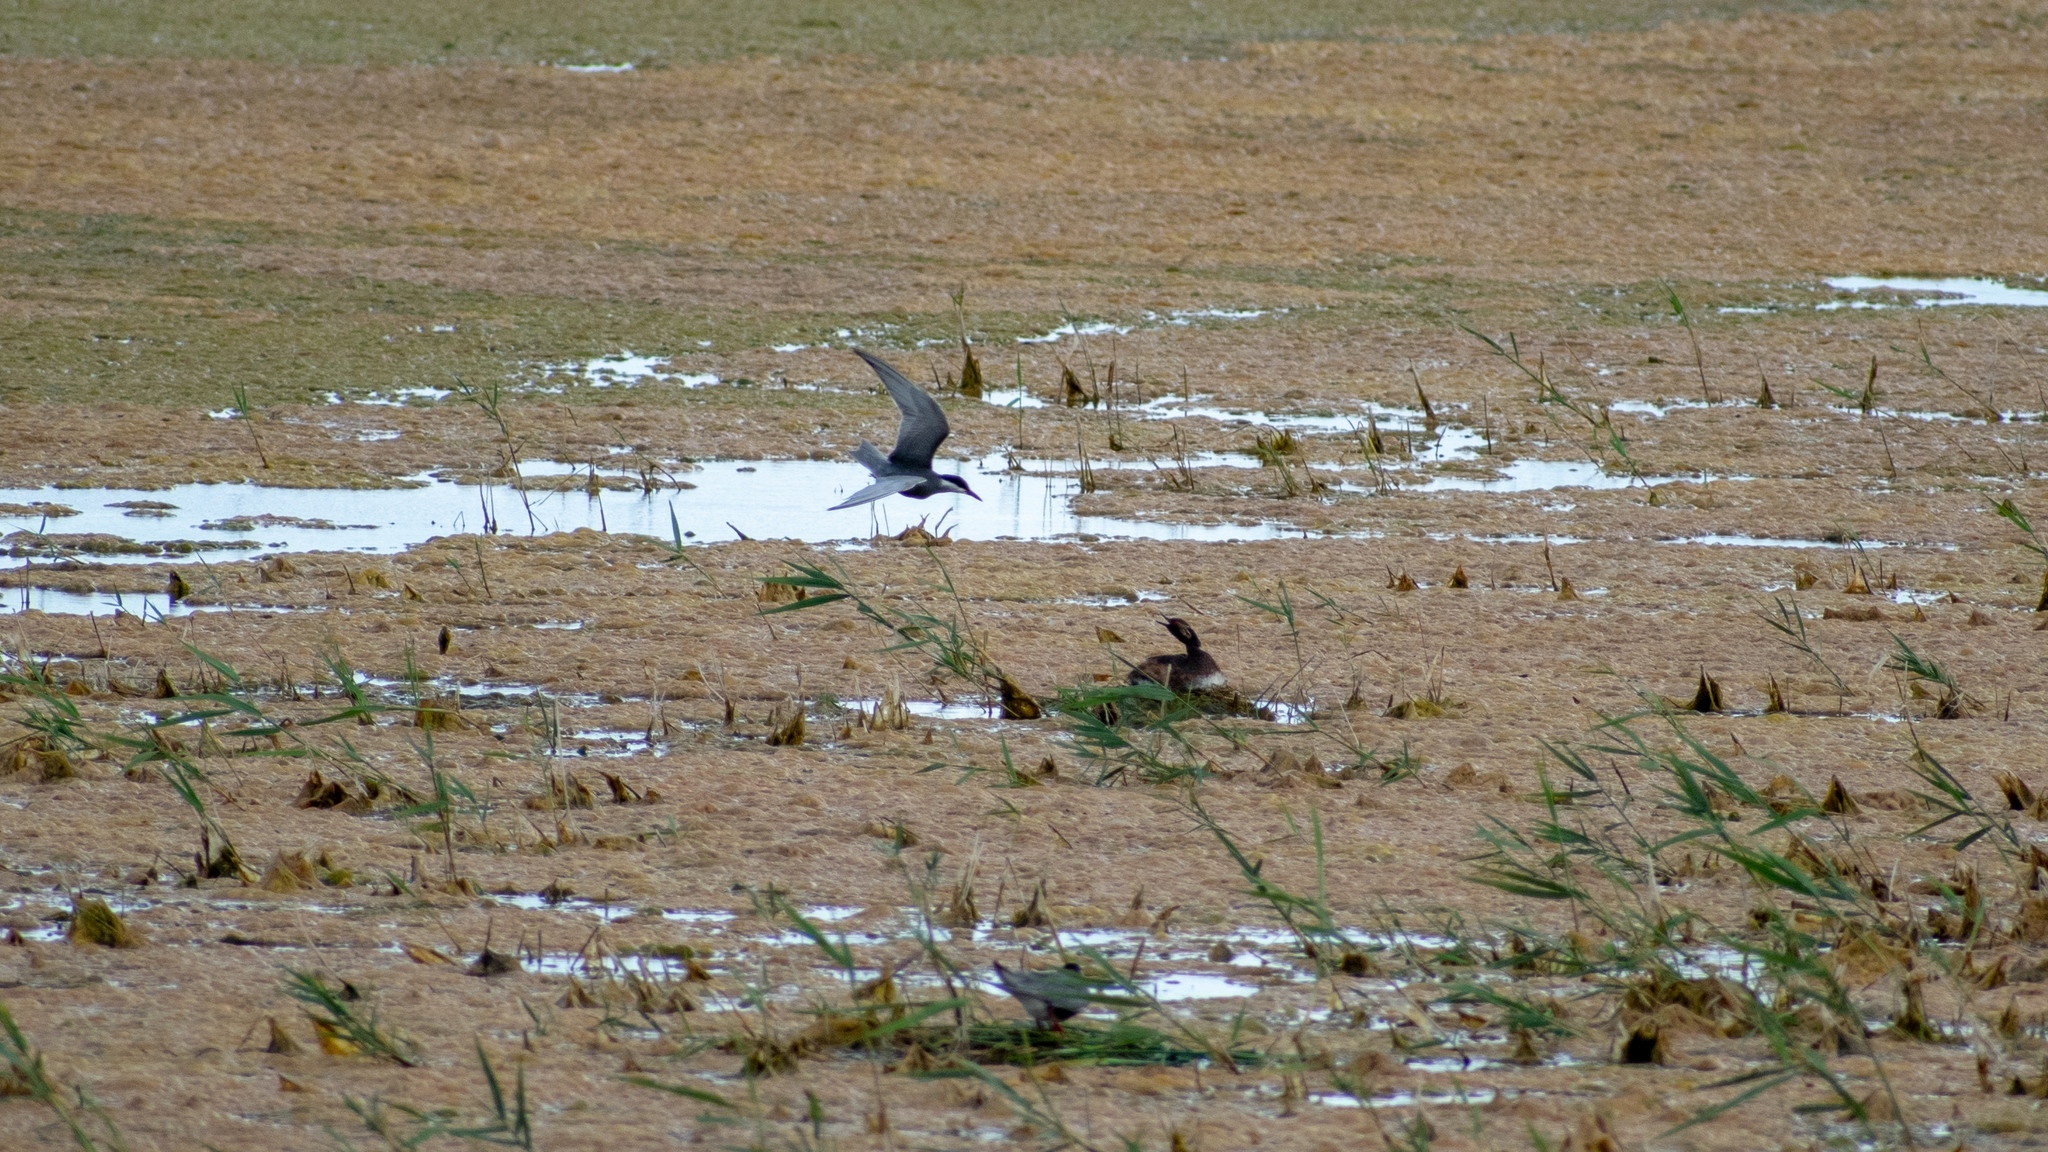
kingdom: Animalia
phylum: Chordata
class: Aves
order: Charadriiformes
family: Laridae
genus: Chlidonias
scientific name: Chlidonias hybrida
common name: Whiskered tern
